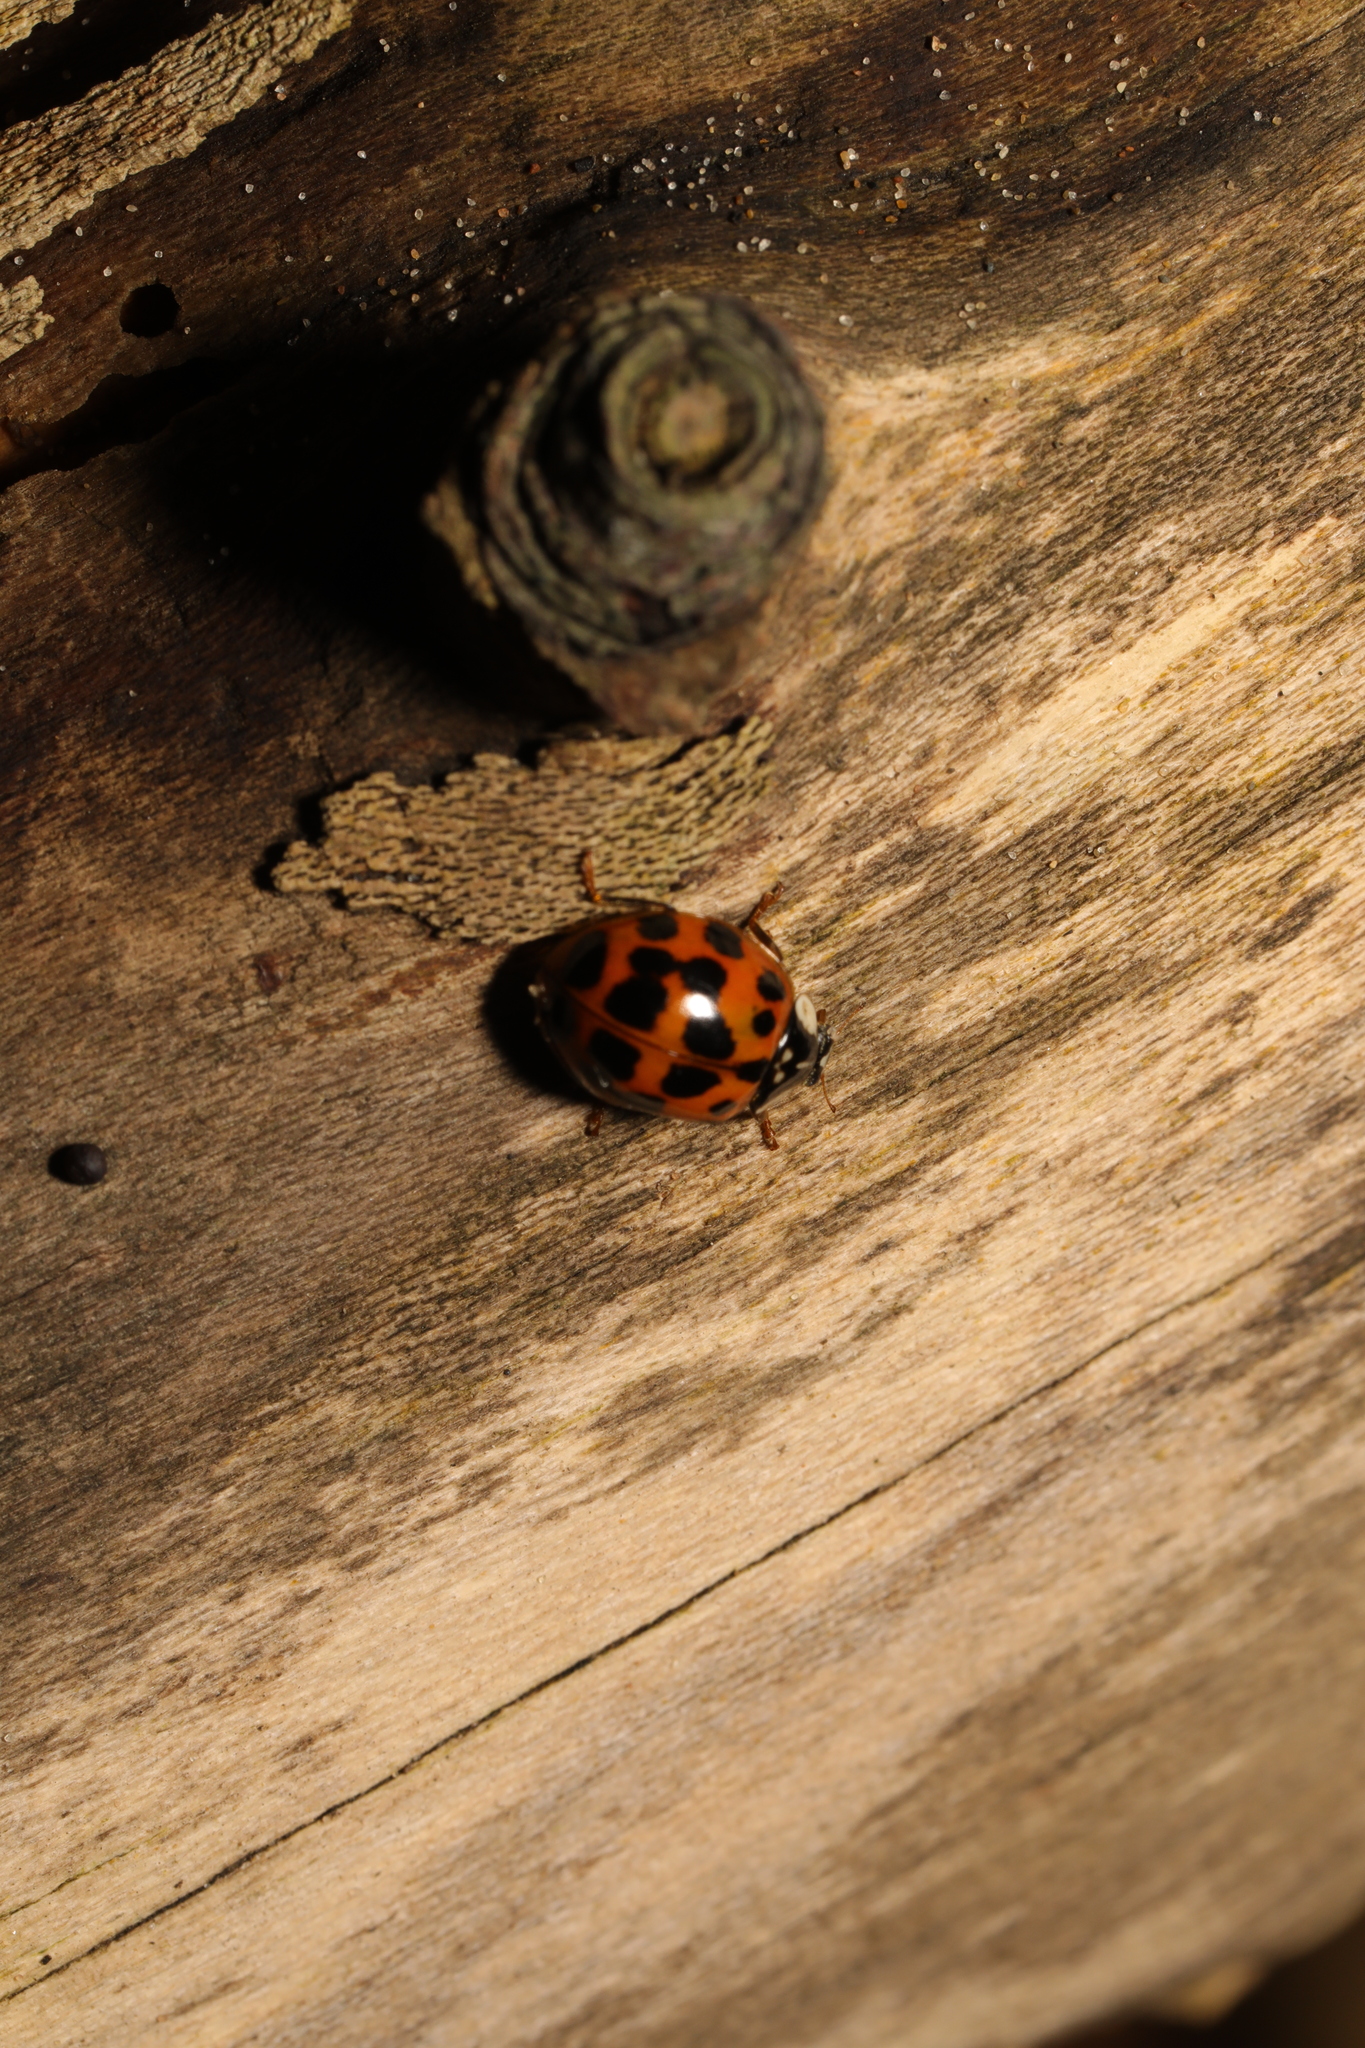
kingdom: Animalia
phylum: Arthropoda
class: Insecta
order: Coleoptera
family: Coccinellidae
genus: Harmonia
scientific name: Harmonia axyridis
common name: Harlequin ladybird
